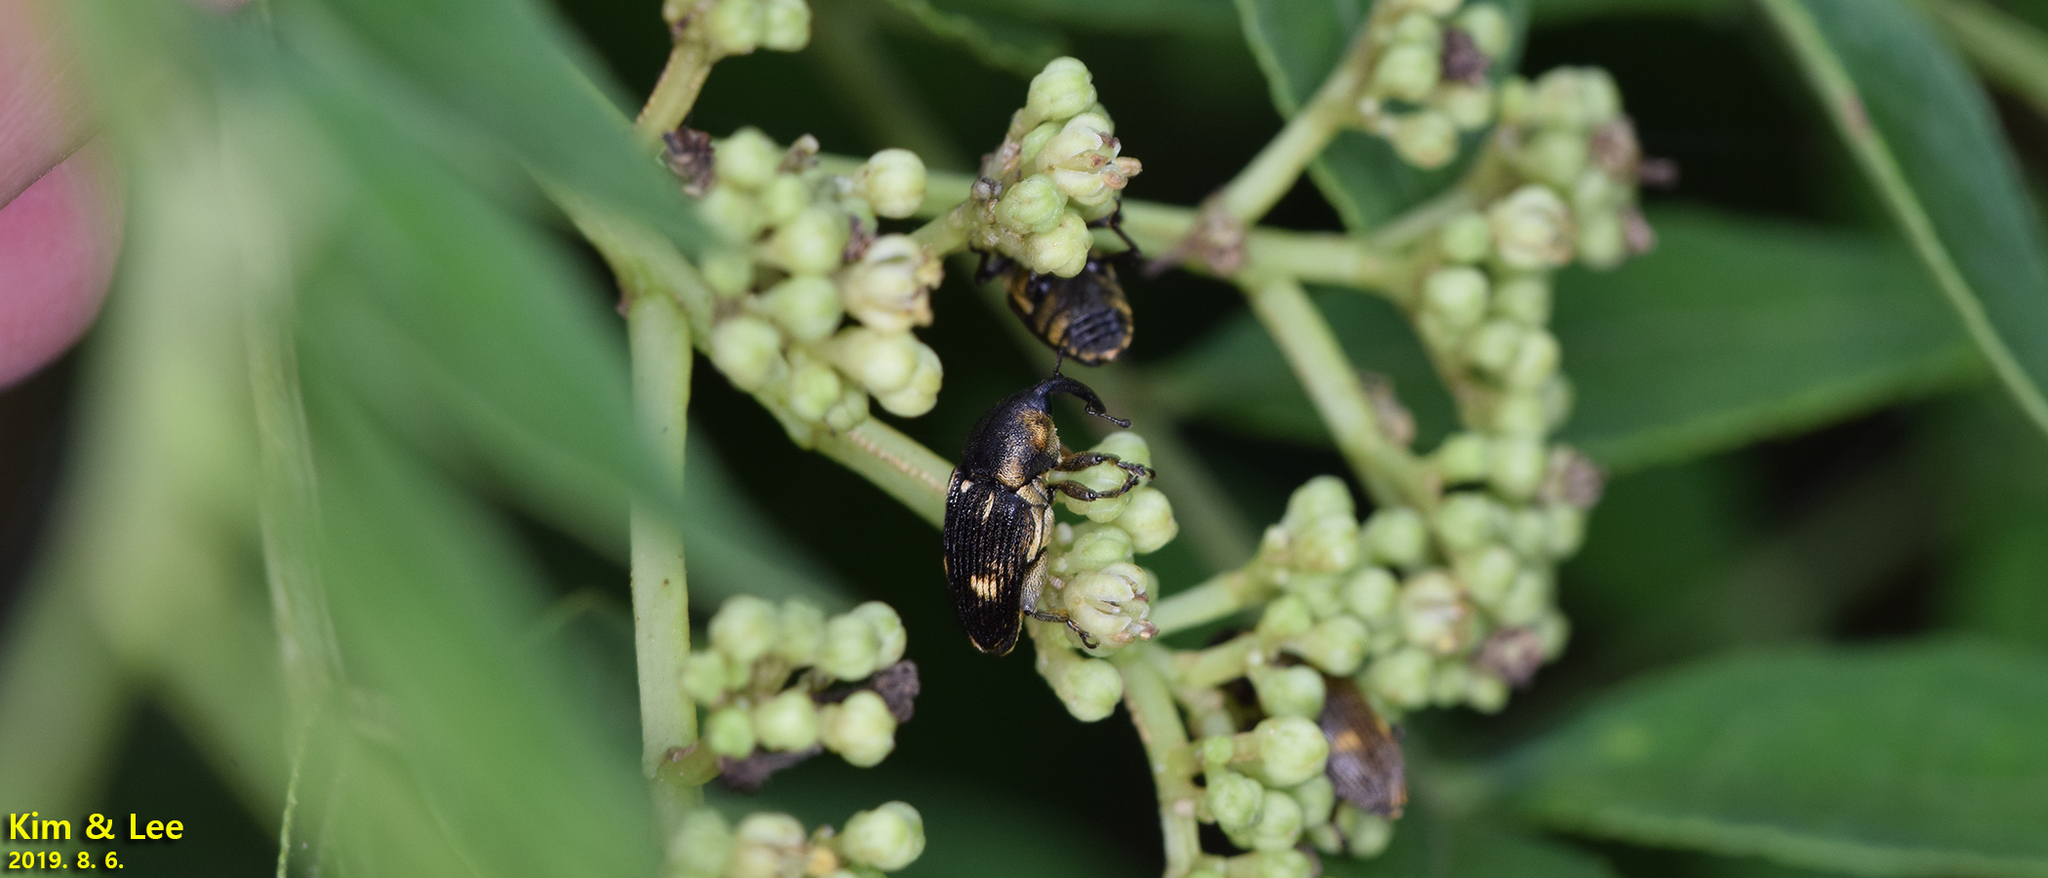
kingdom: Animalia
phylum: Arthropoda
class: Insecta
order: Coleoptera
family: Curculionidae
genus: Anthinobaris
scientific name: Anthinobaris dispilota
